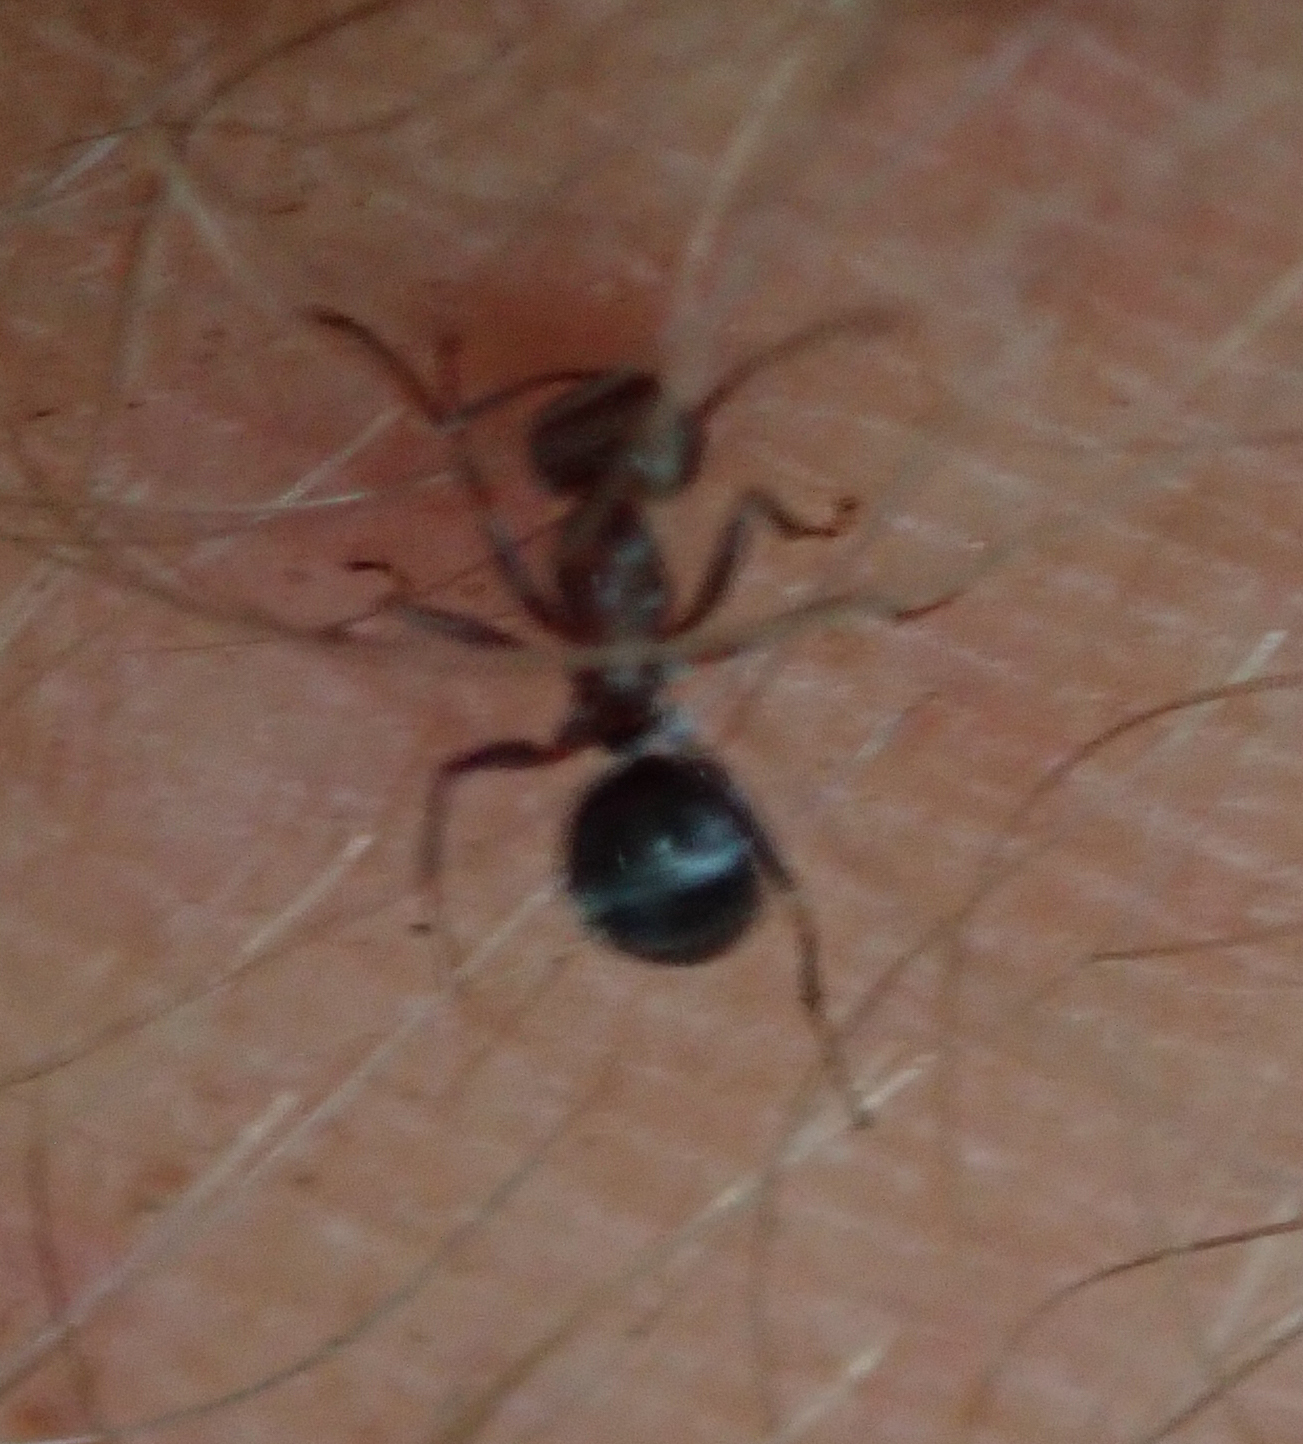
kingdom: Animalia
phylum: Arthropoda
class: Insecta
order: Hymenoptera
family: Formicidae
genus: Anoplolepis
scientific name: Anoplolepis steingroeveri
